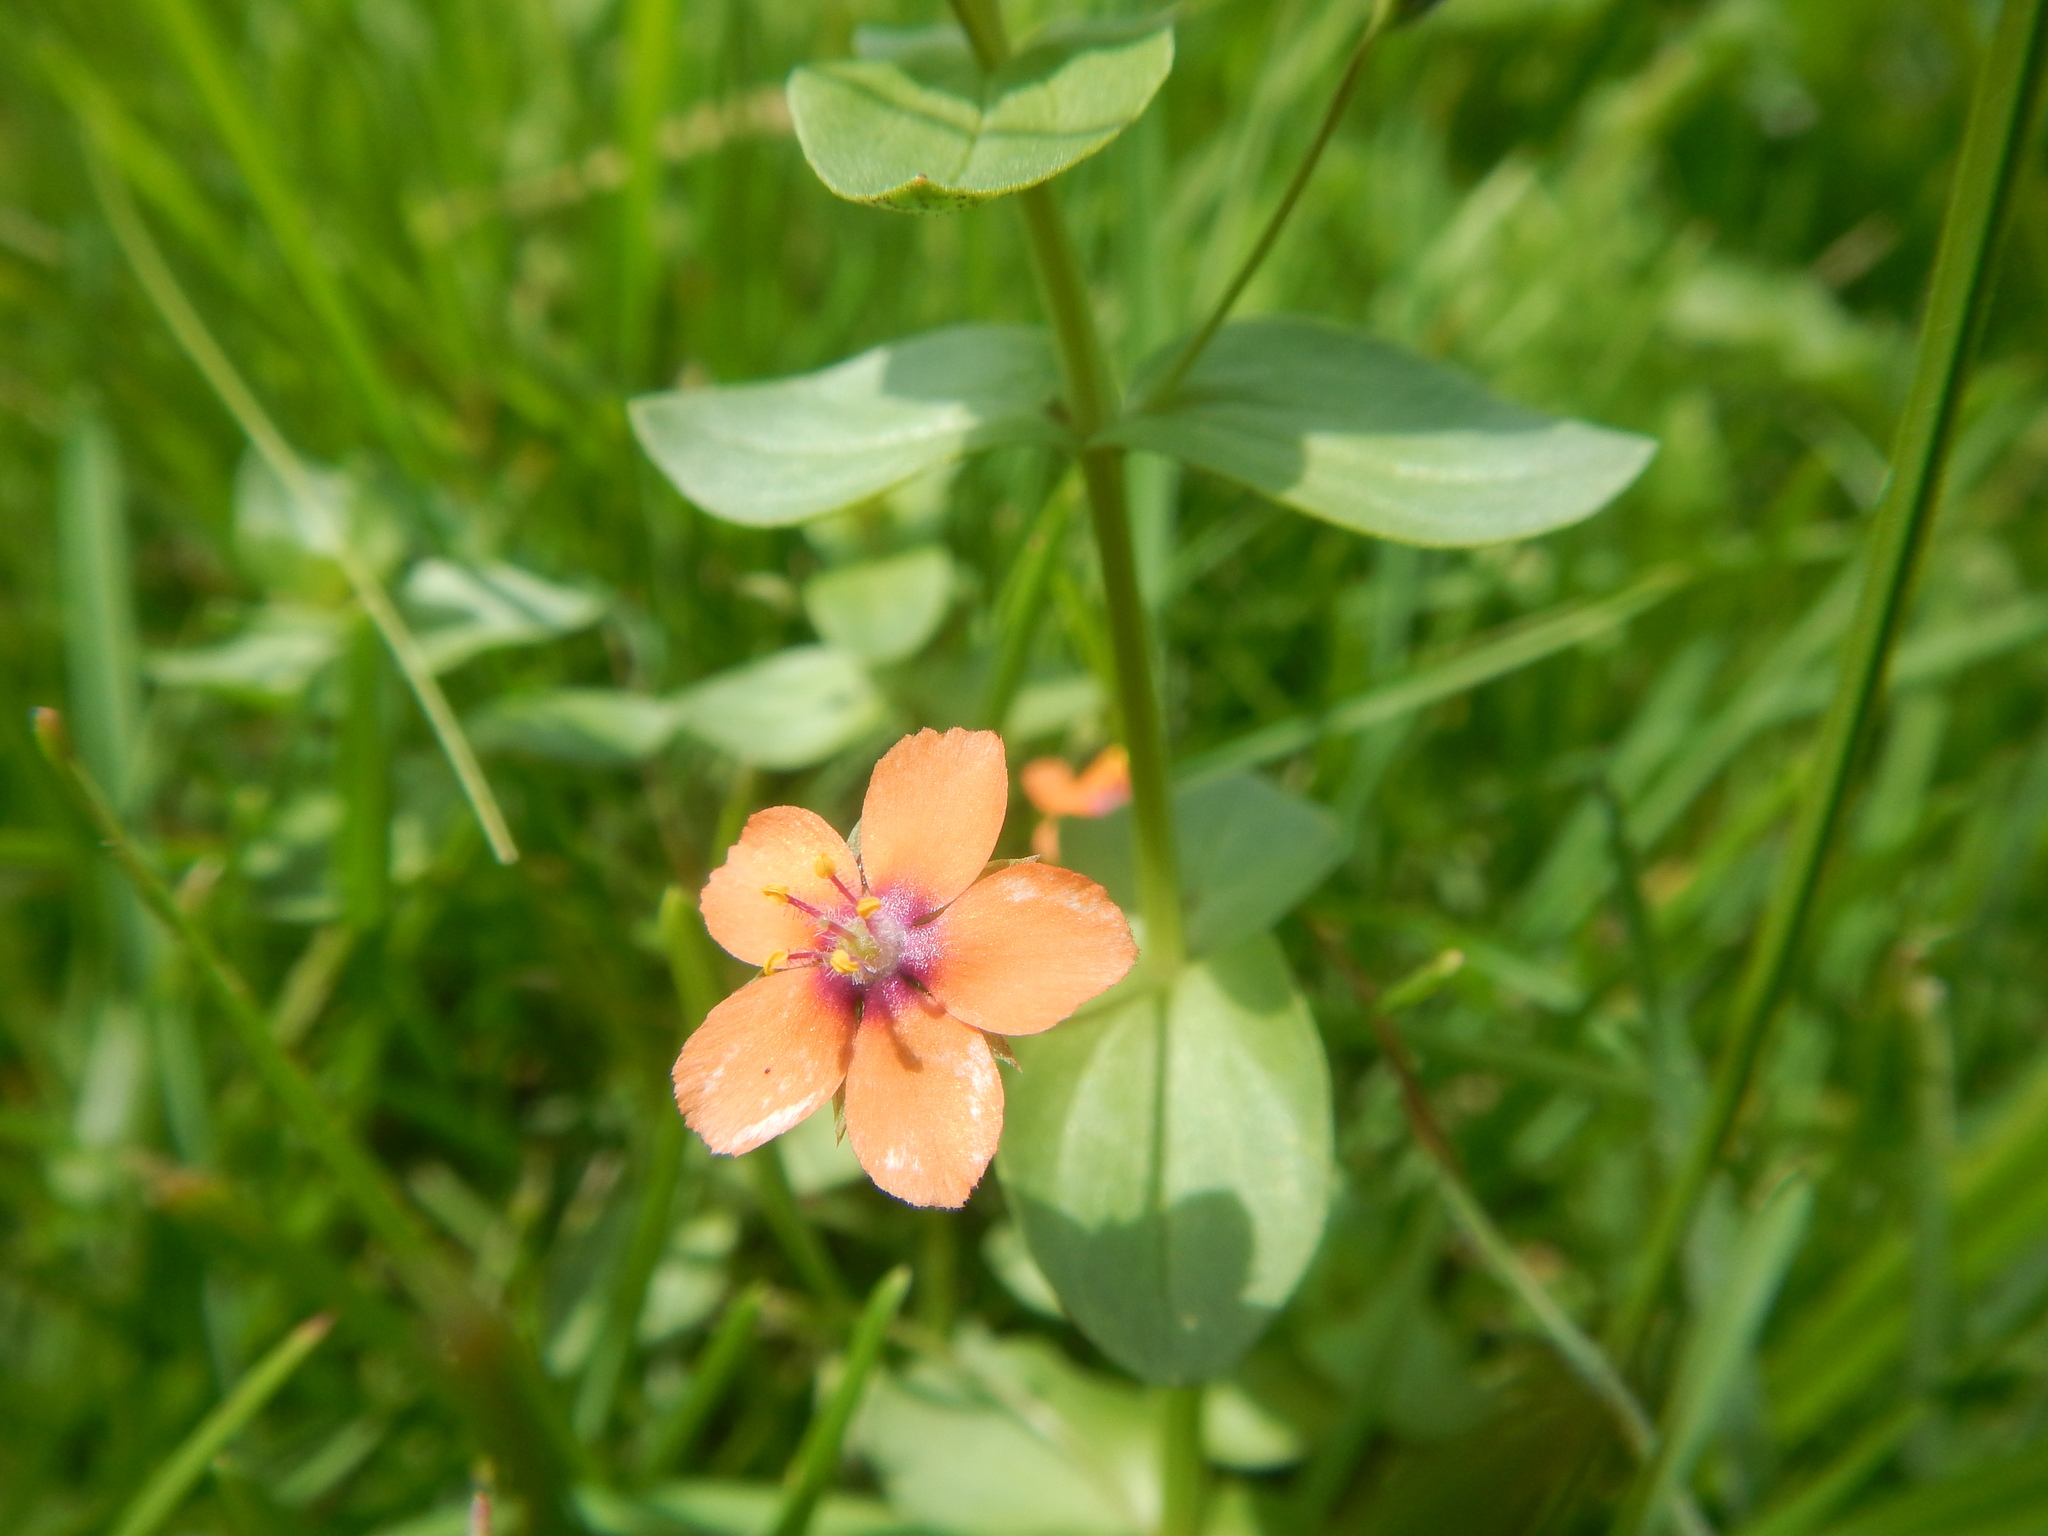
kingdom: Plantae
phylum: Tracheophyta
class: Magnoliopsida
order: Ericales
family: Primulaceae
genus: Lysimachia
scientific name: Lysimachia arvensis
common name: Scarlet pimpernel
